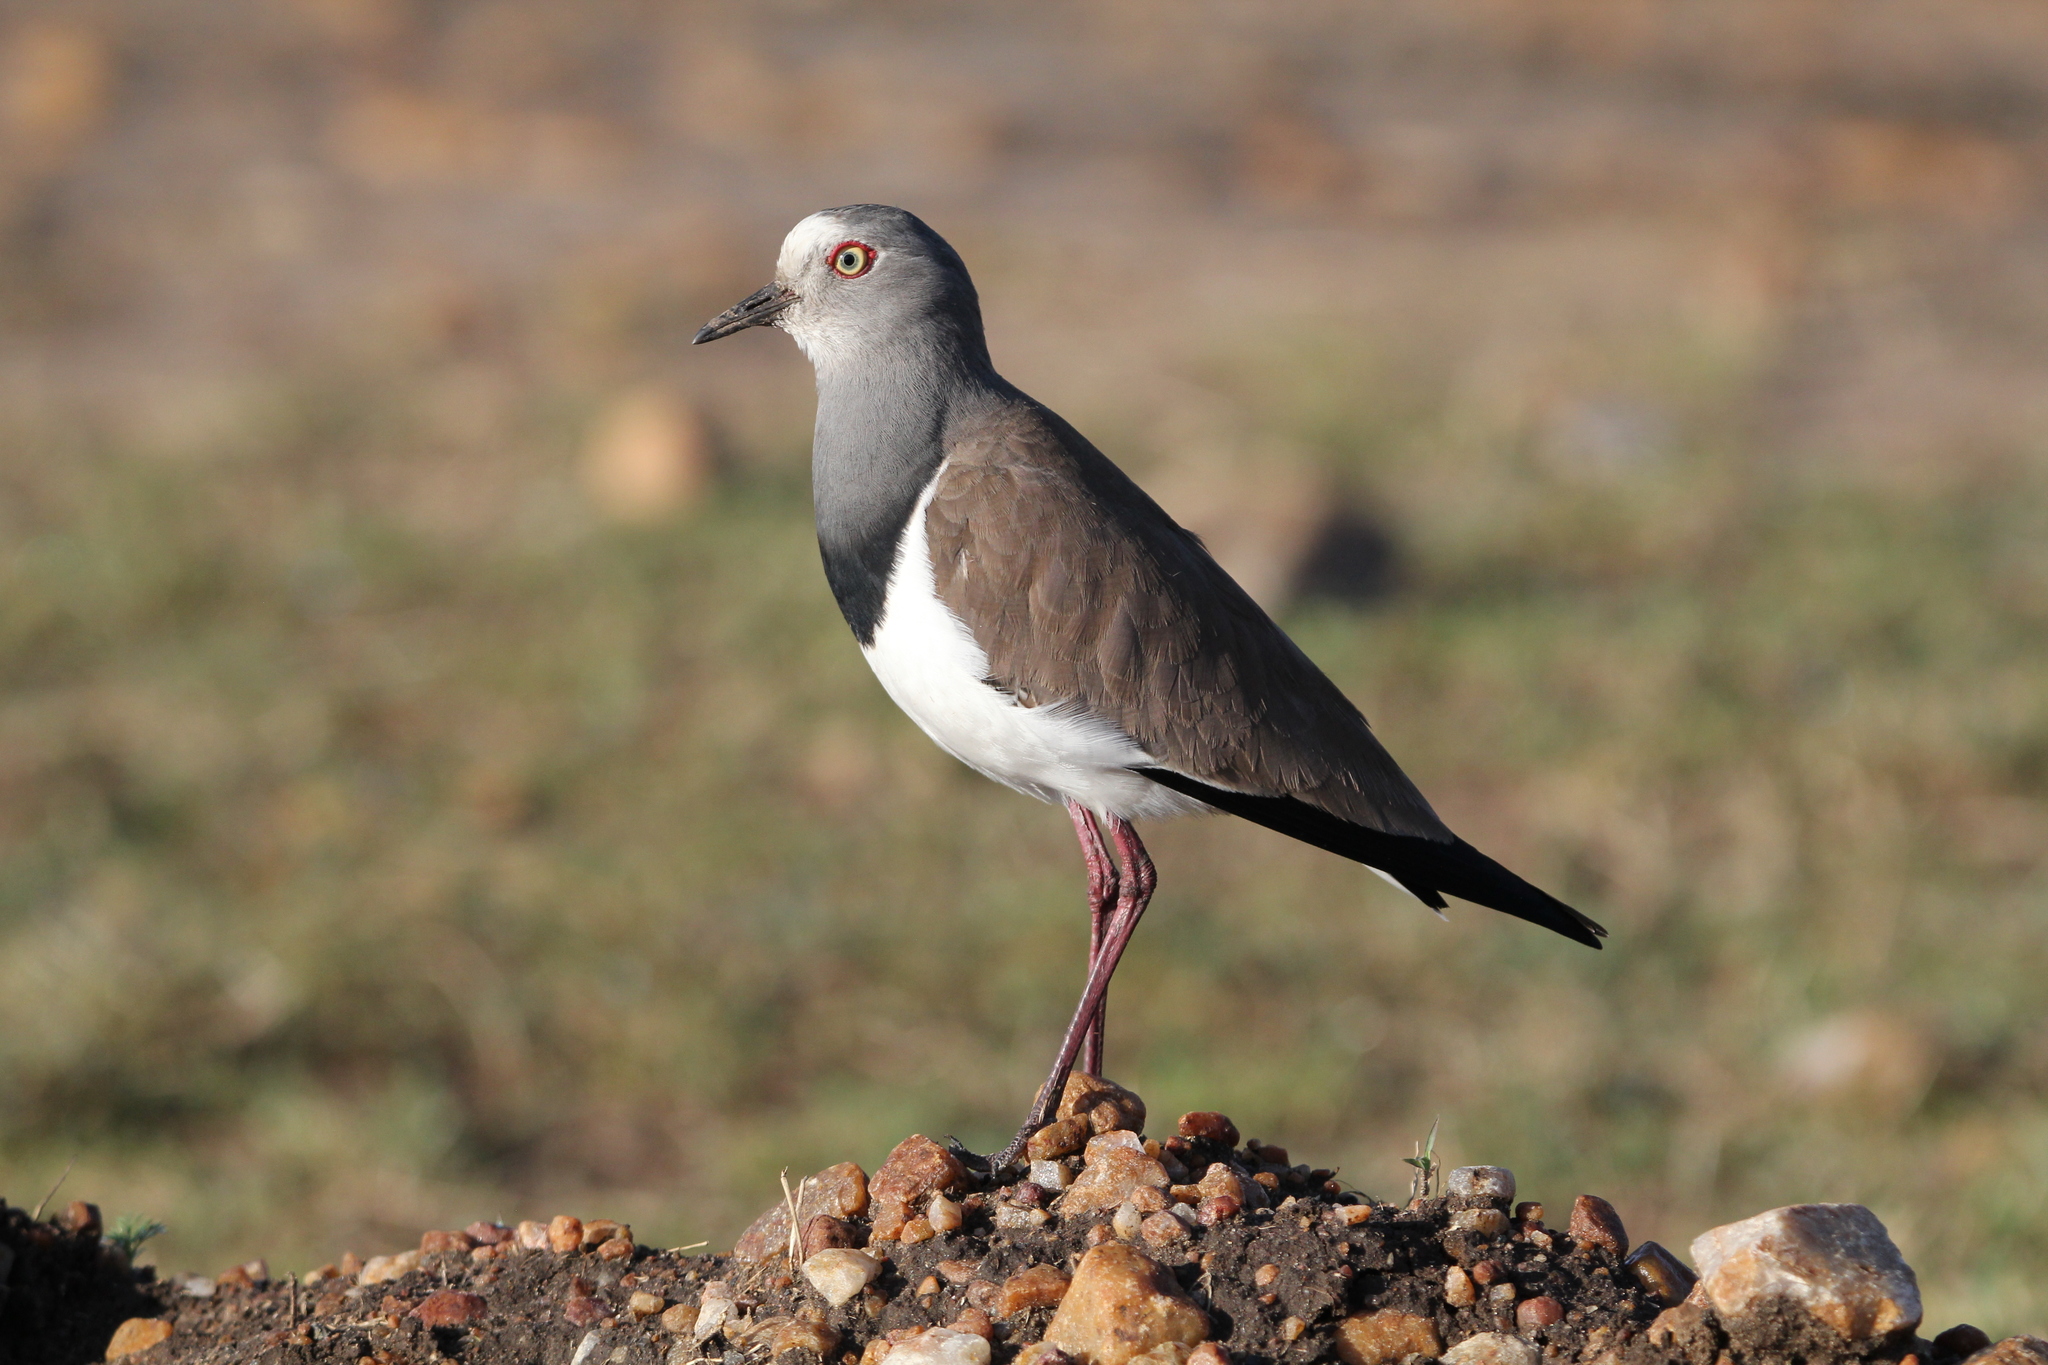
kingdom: Animalia
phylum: Chordata
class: Aves
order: Charadriiformes
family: Charadriidae
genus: Vanellus
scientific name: Vanellus melanopterus
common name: Black-winged lapwing
